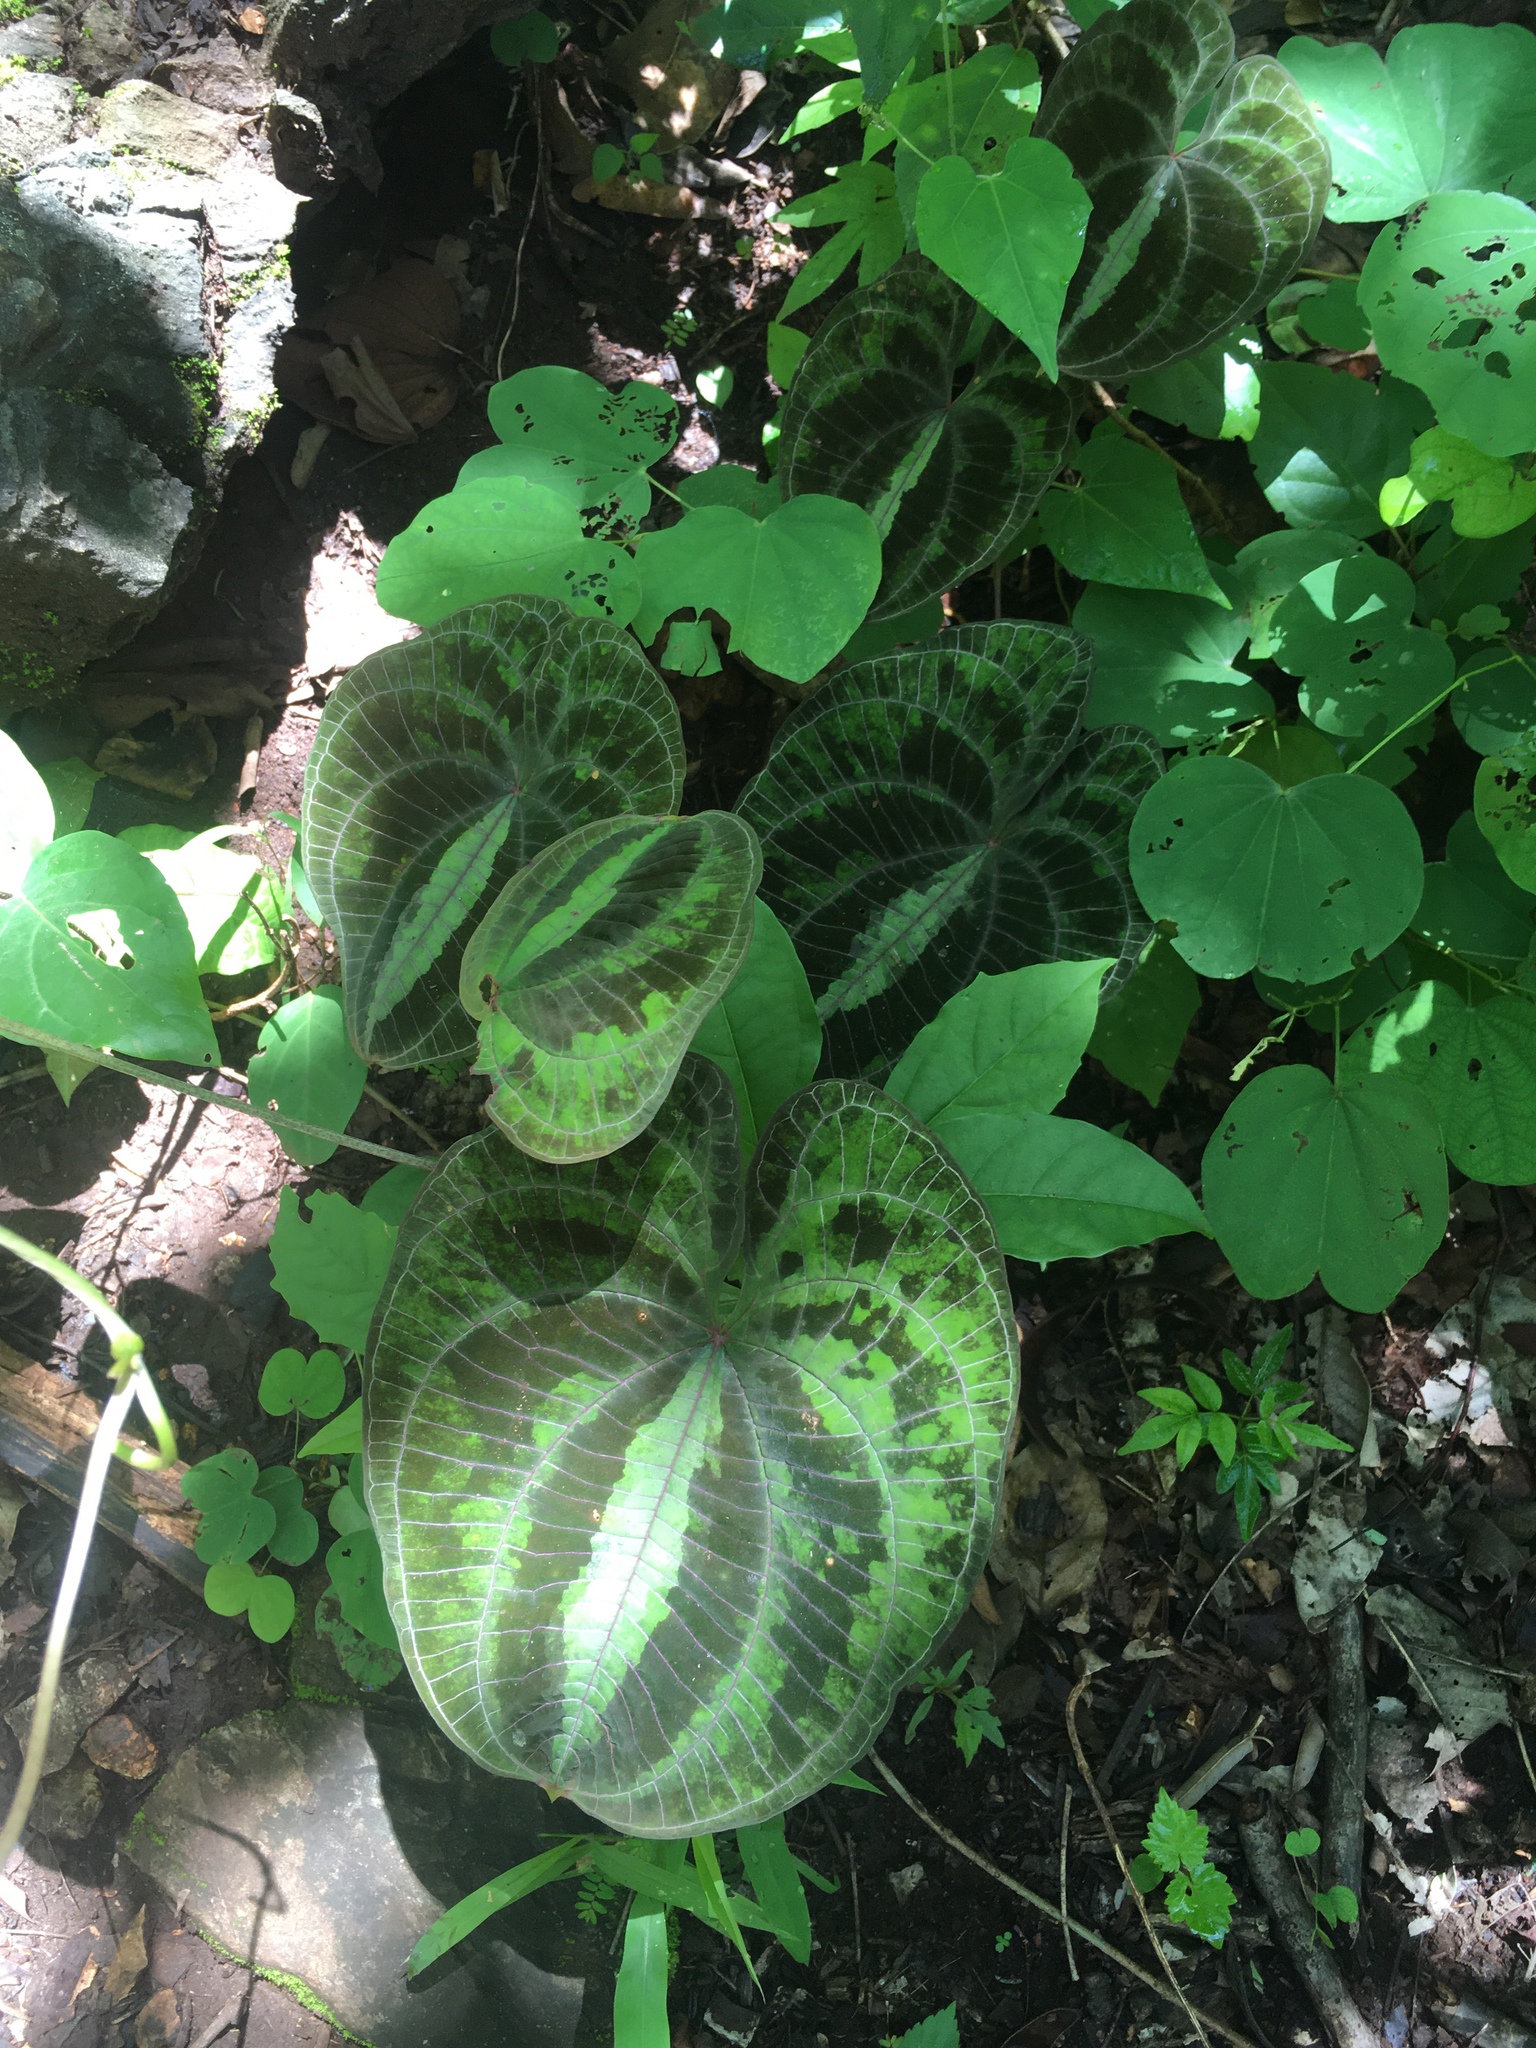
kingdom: Plantae
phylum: Tracheophyta
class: Liliopsida
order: Dioscoreales
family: Dioscoreaceae
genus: Dioscorea
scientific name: Dioscorea dodecaneura
